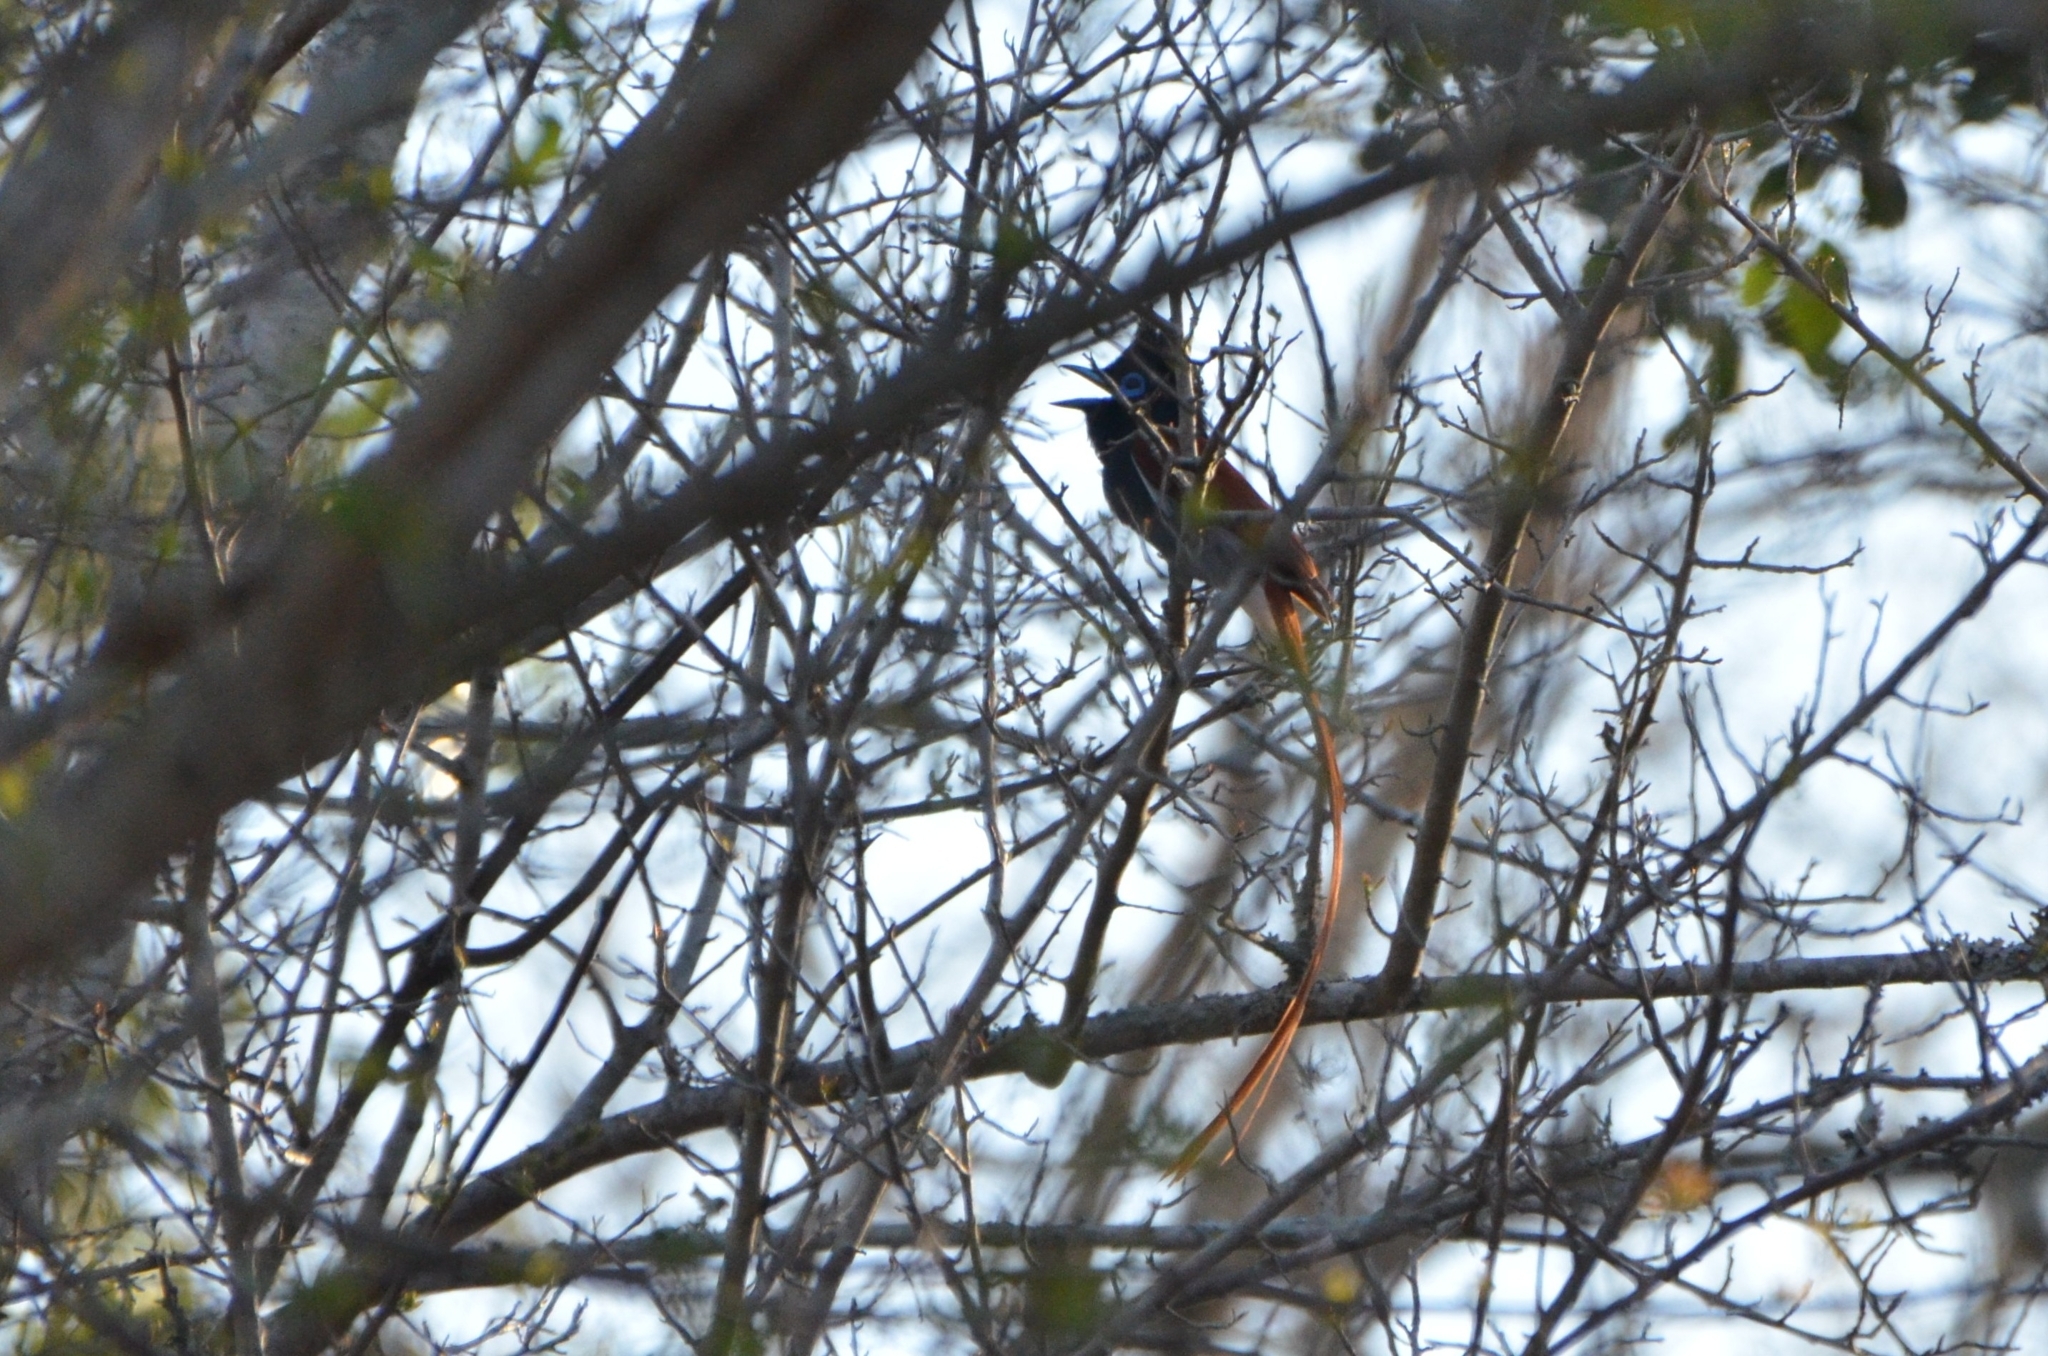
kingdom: Animalia
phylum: Chordata
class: Aves
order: Passeriformes
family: Monarchidae
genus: Terpsiphone
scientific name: Terpsiphone viridis
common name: African paradise flycatcher
